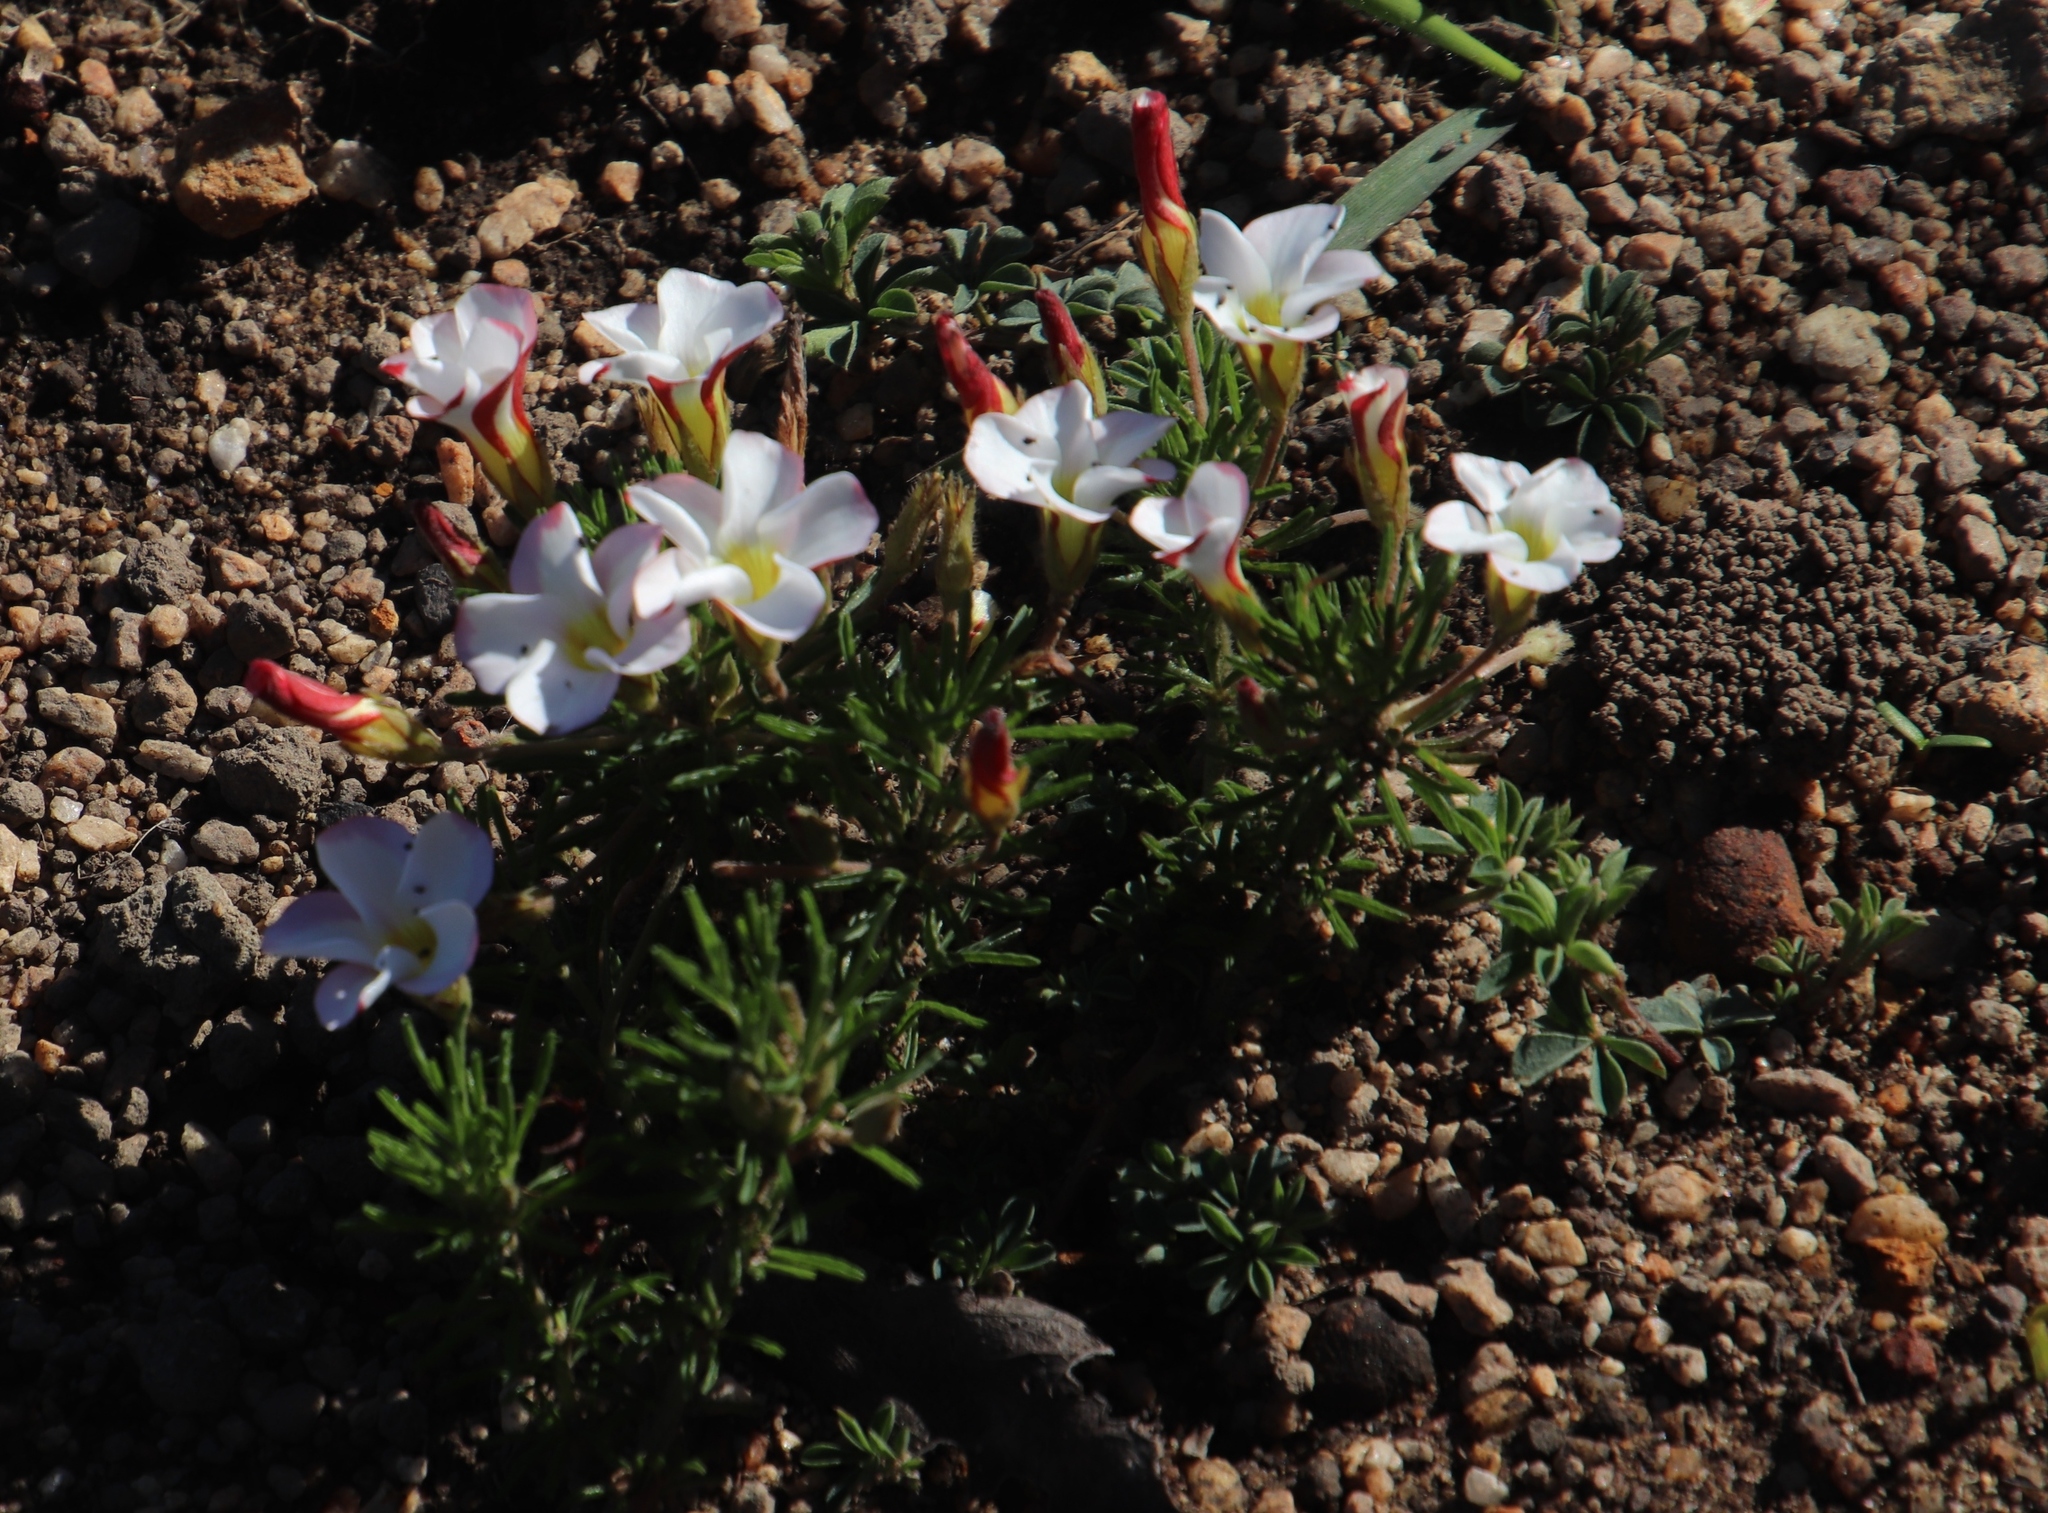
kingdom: Plantae
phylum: Tracheophyta
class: Magnoliopsida
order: Oxalidales
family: Oxalidaceae
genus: Oxalis
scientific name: Oxalis tenuifolia
